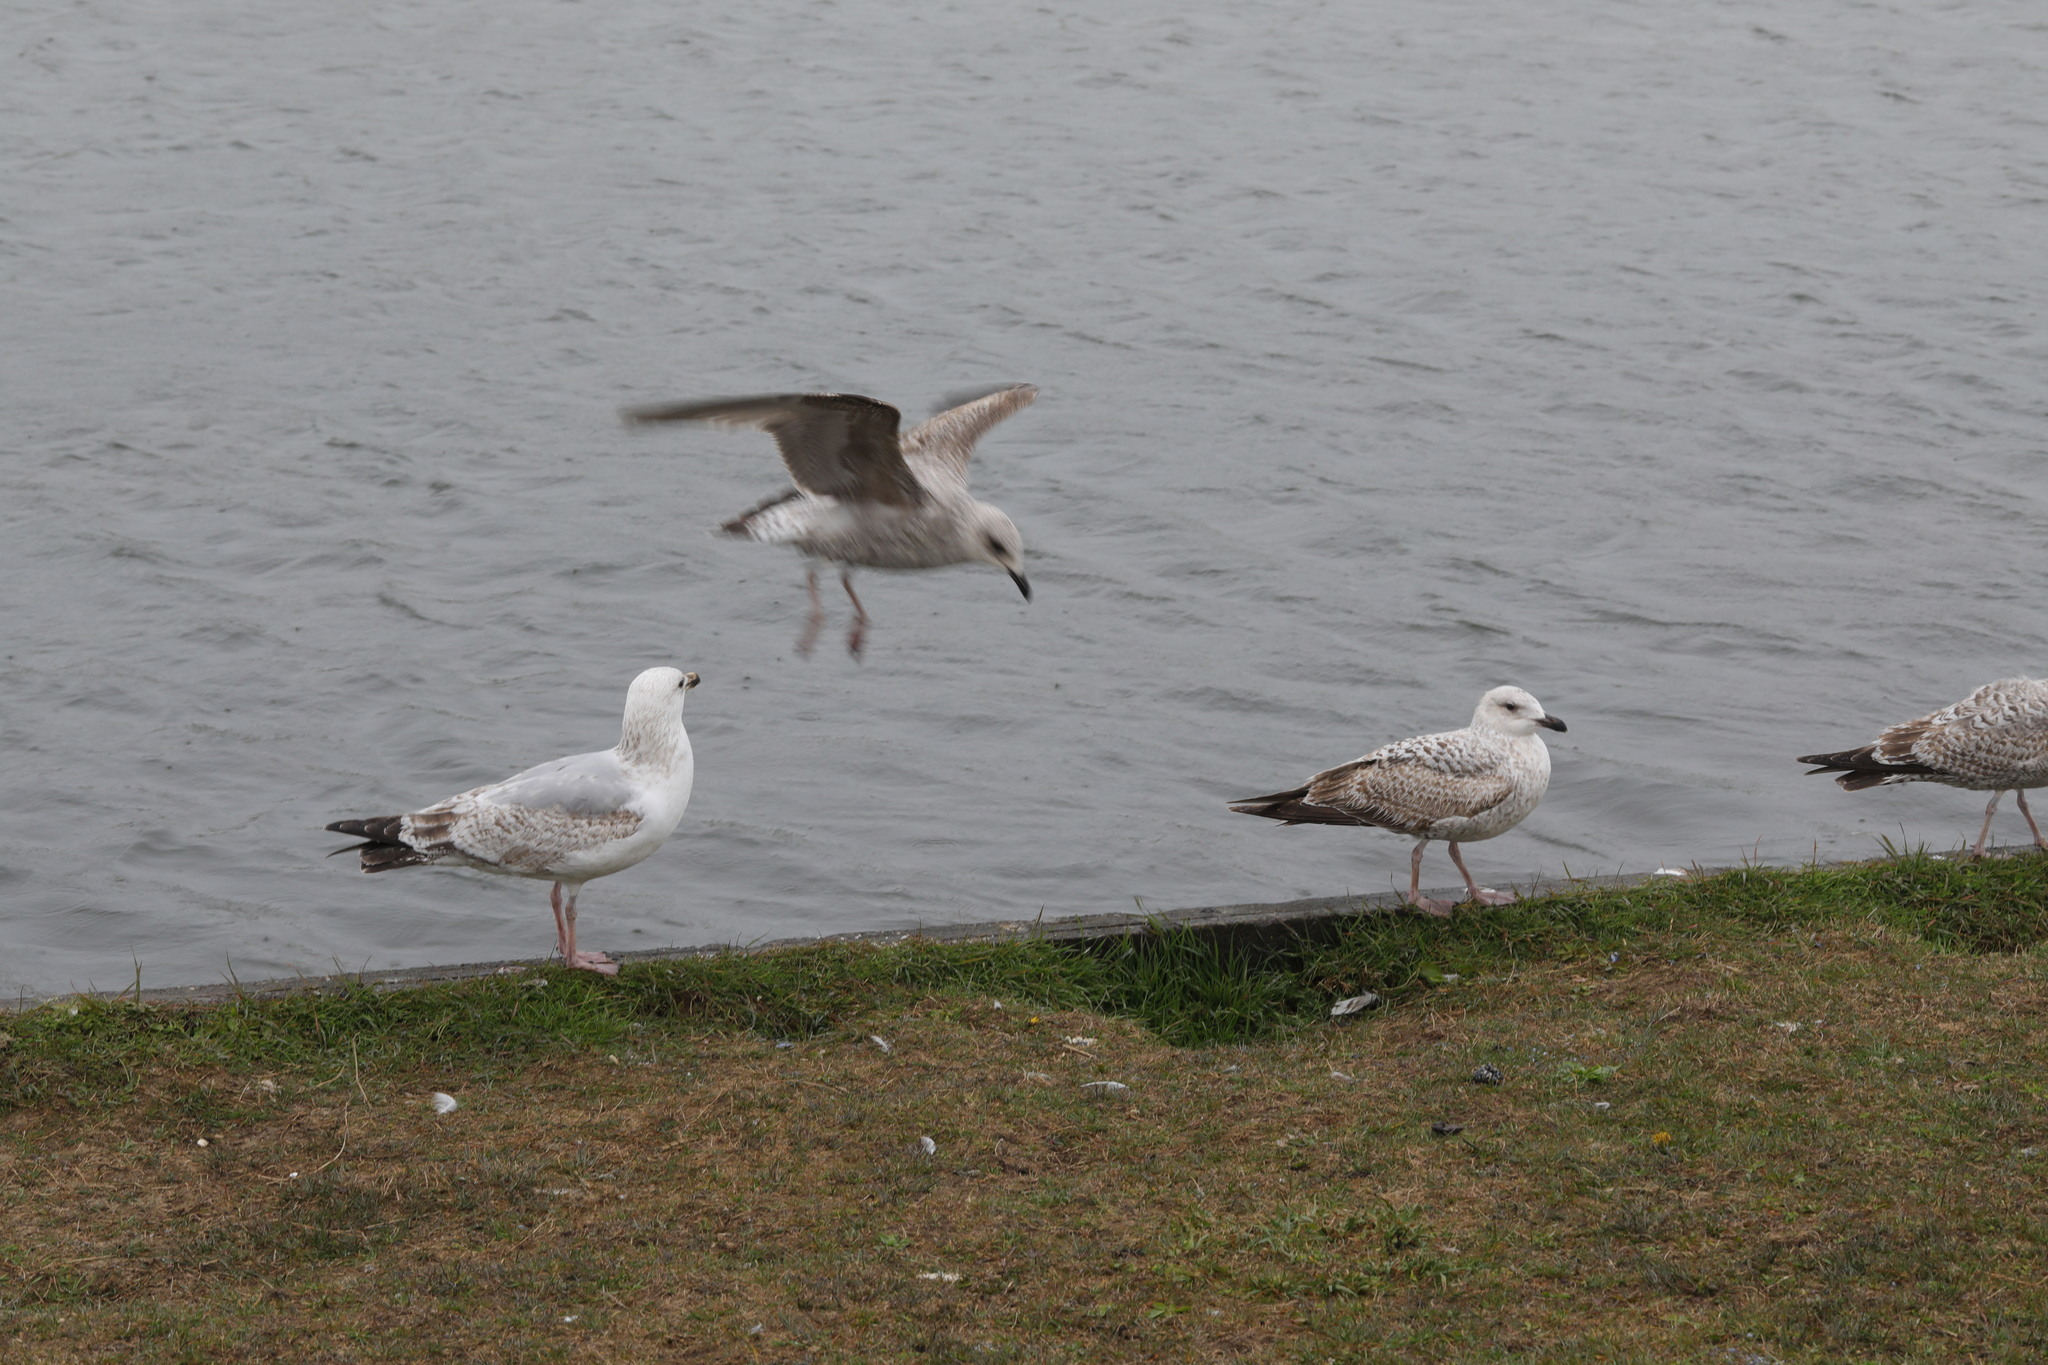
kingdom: Animalia
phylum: Chordata
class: Aves
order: Charadriiformes
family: Laridae
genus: Larus
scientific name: Larus argentatus
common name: Herring gull
